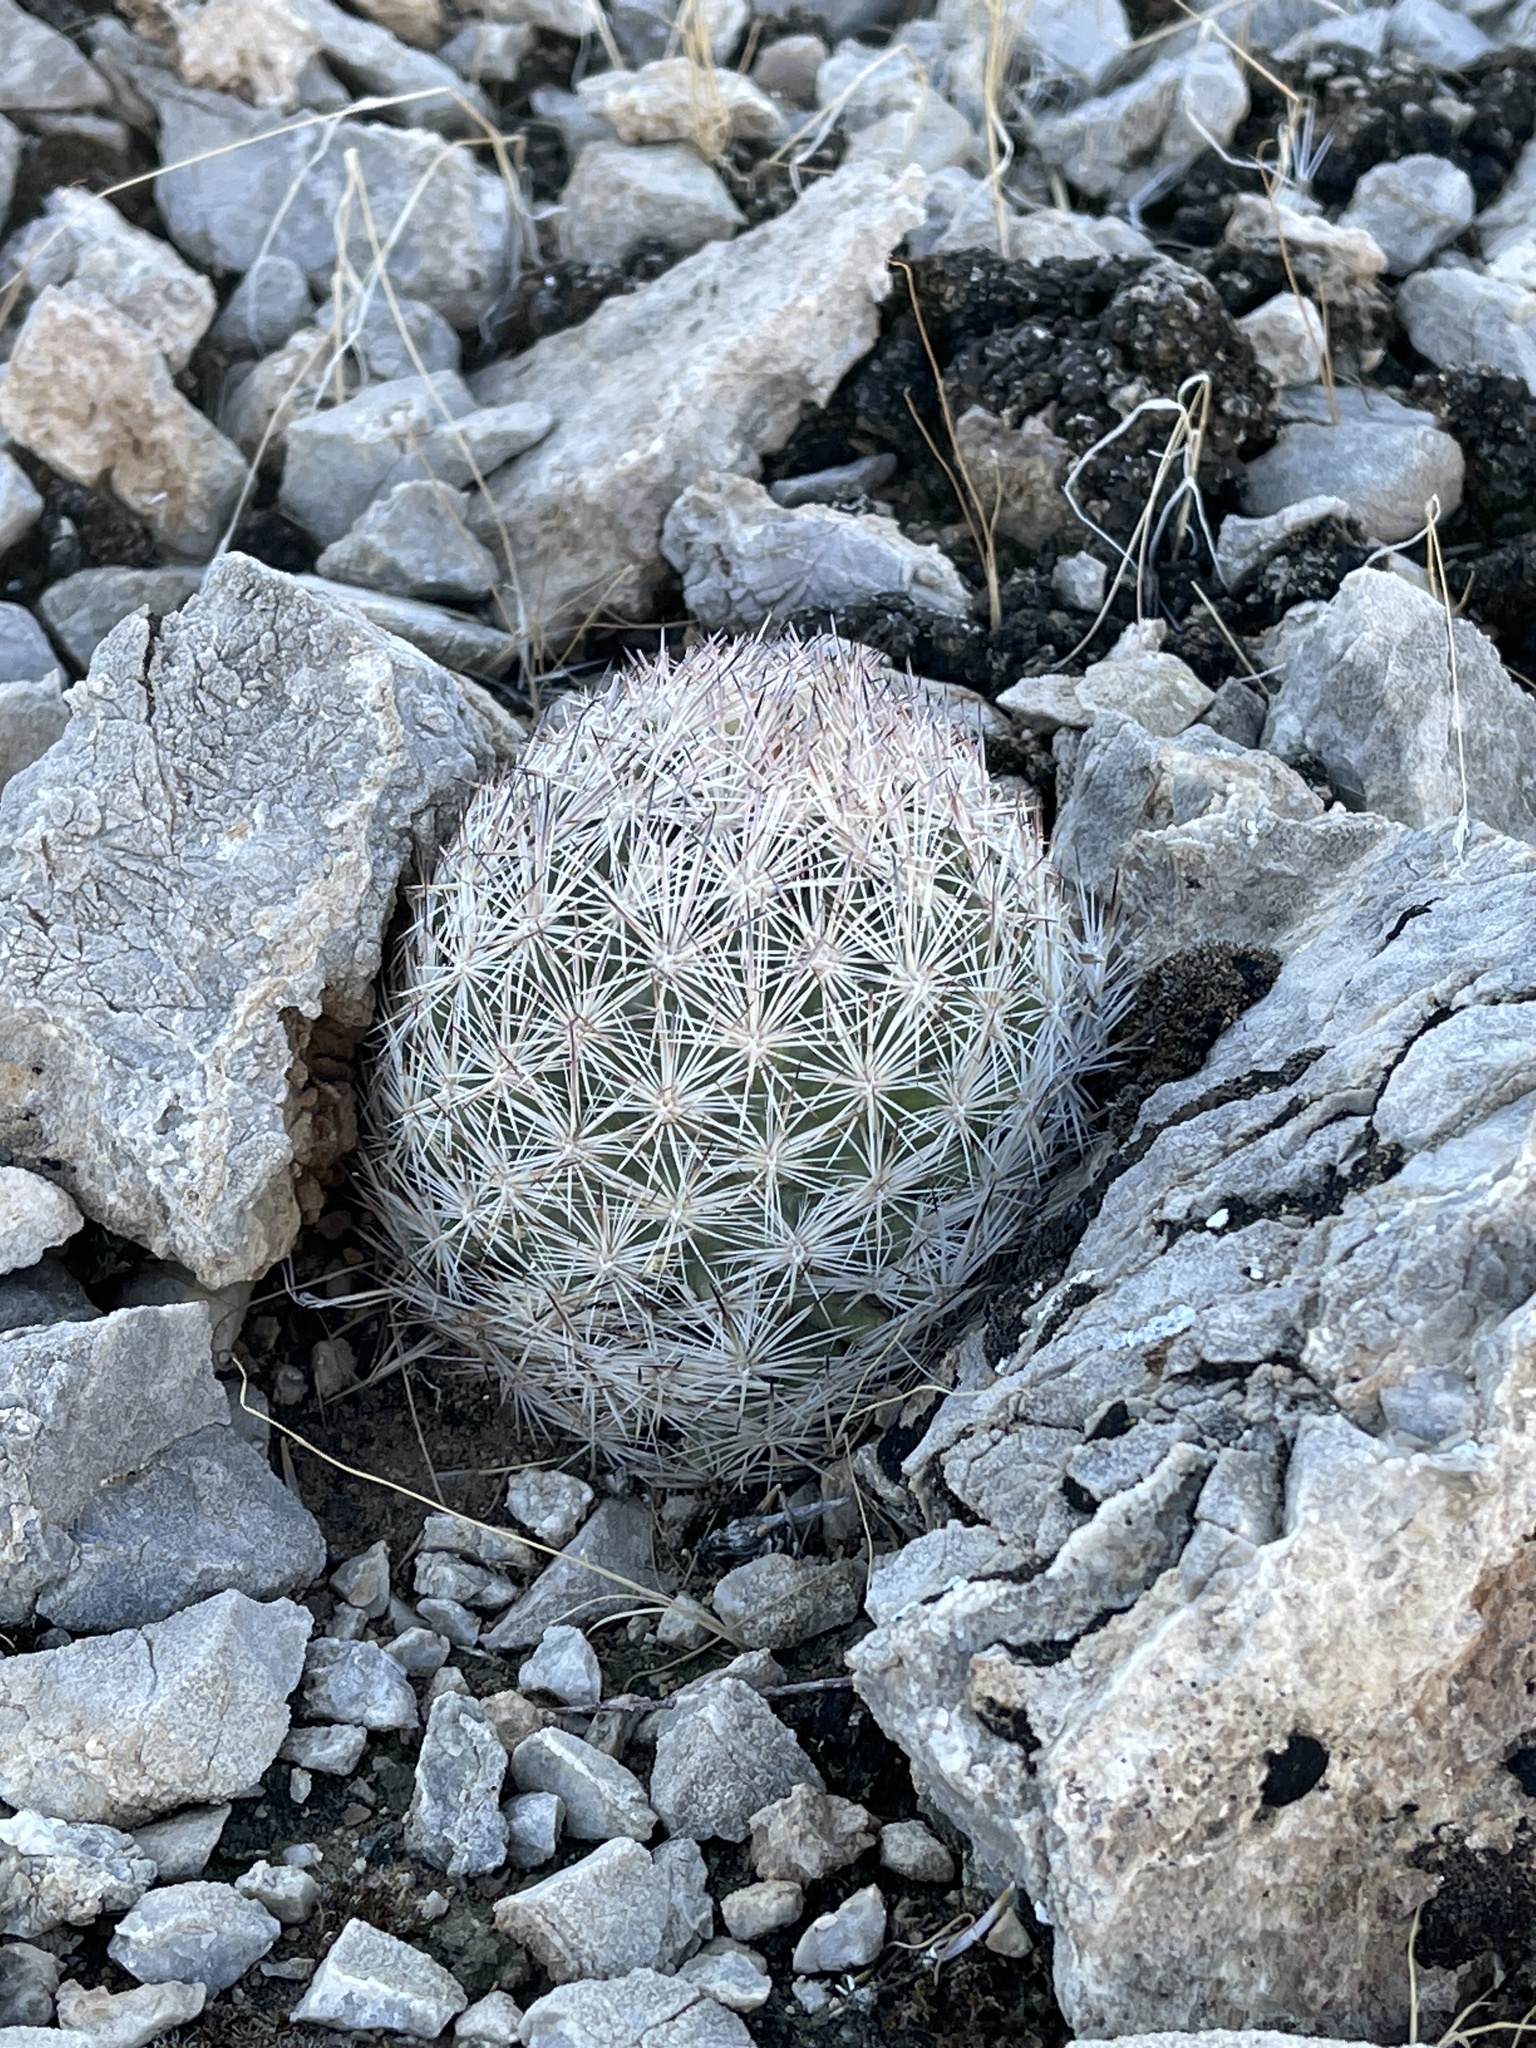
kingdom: Plantae
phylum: Tracheophyta
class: Magnoliopsida
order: Caryophyllales
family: Cactaceae
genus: Pelecyphora
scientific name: Pelecyphora dasyacantha
